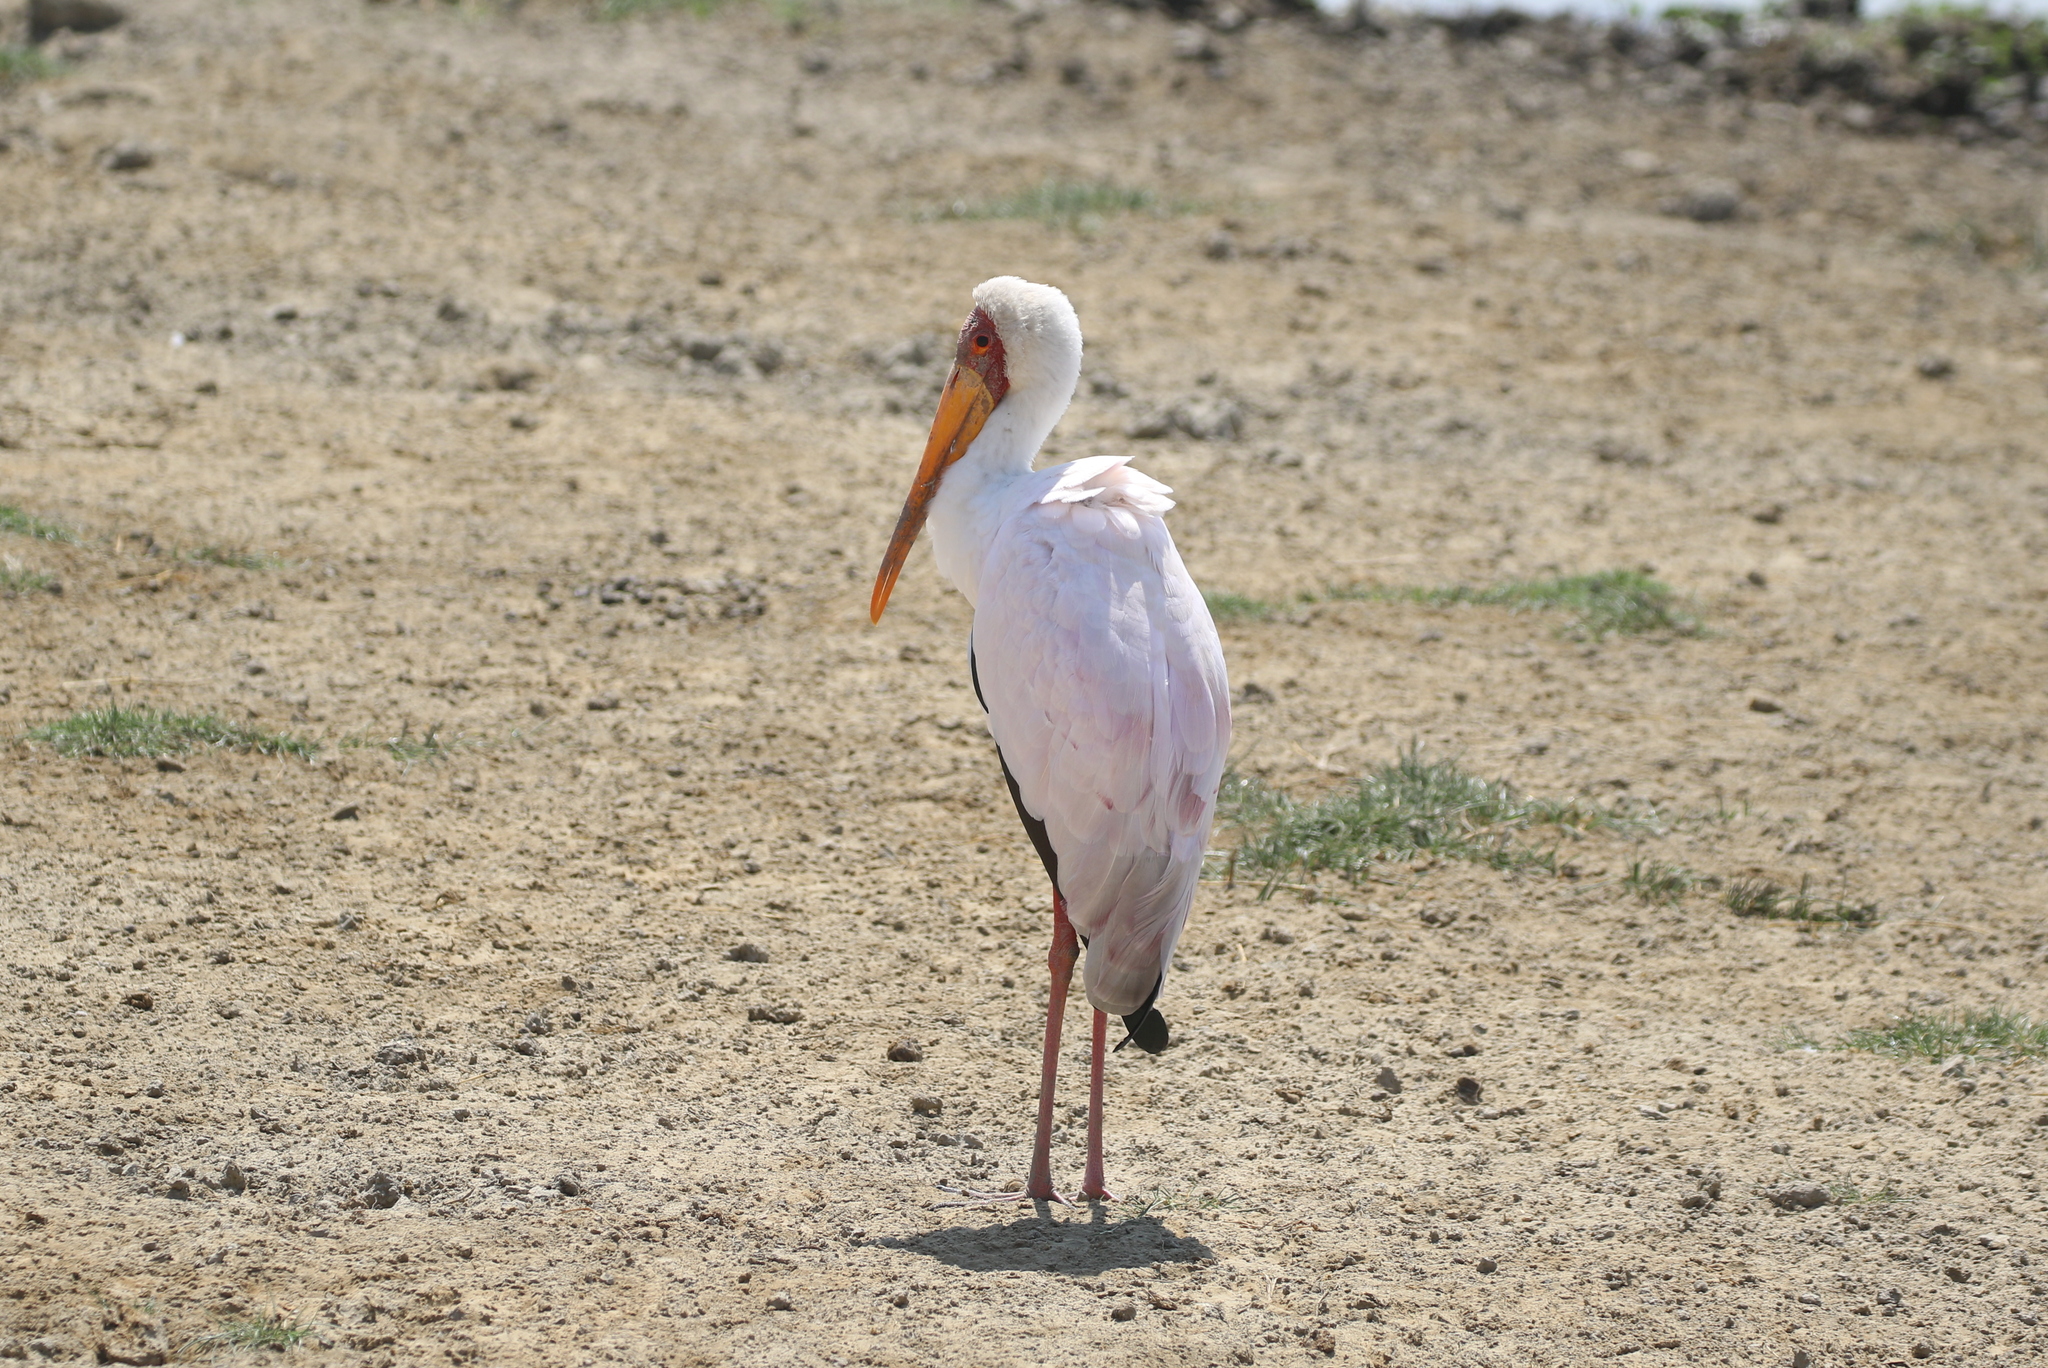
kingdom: Animalia
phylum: Chordata
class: Aves
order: Ciconiiformes
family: Ciconiidae
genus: Mycteria
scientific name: Mycteria ibis
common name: Yellow-billed stork
